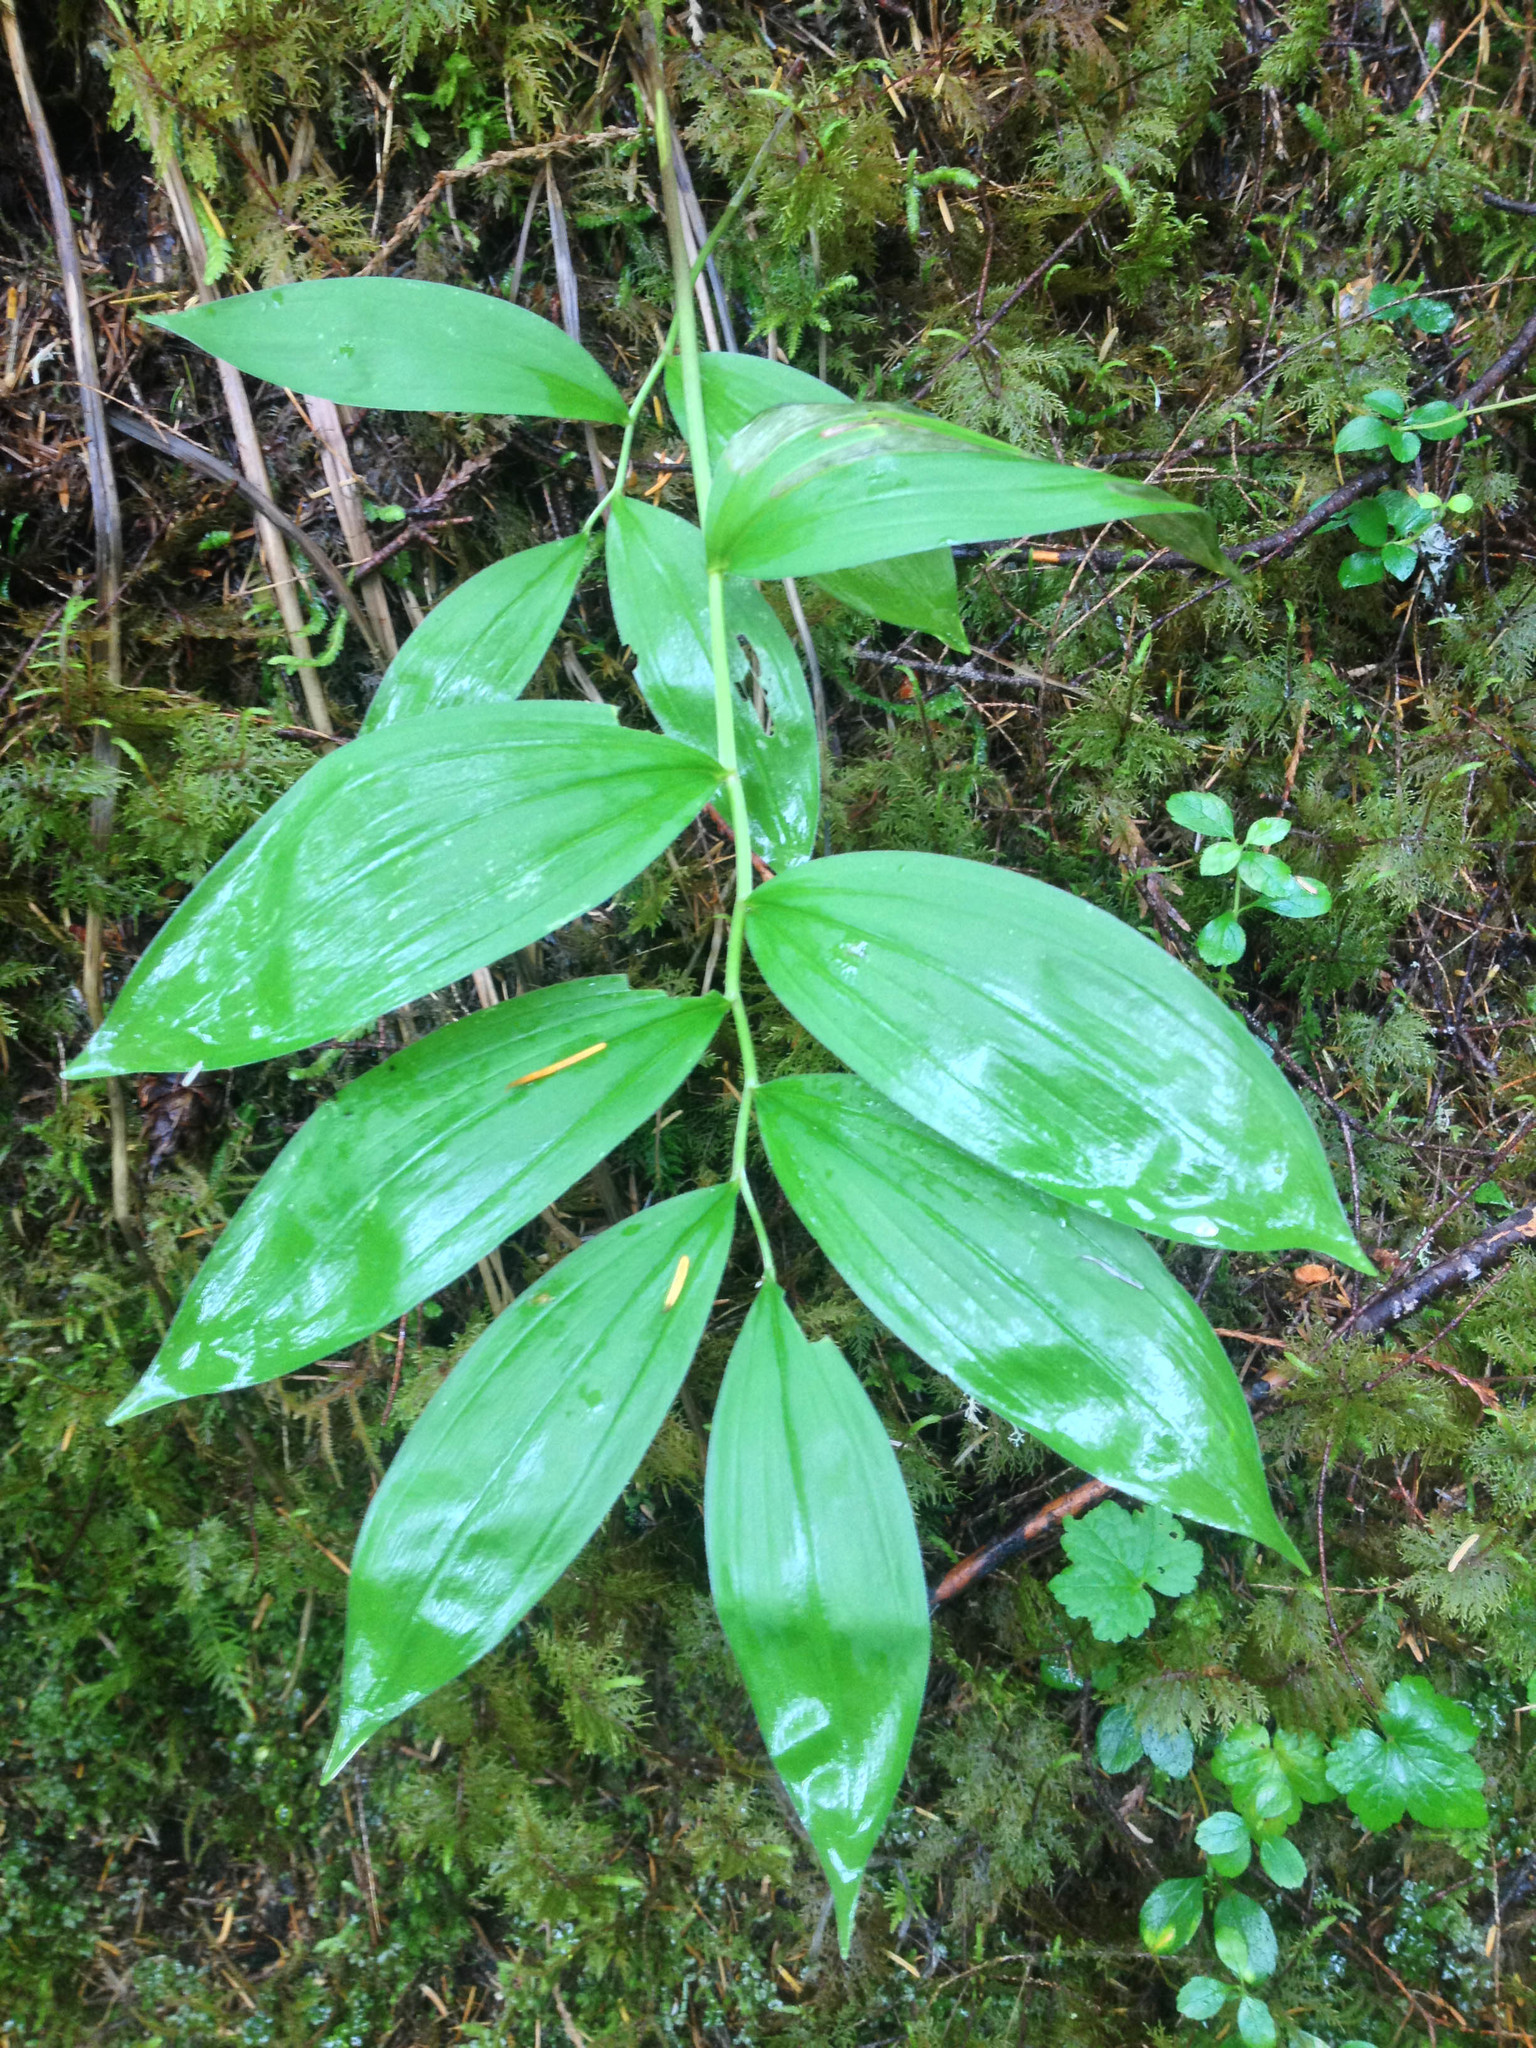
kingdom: Plantae
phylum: Tracheophyta
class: Liliopsida
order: Asparagales
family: Asparagaceae
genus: Maianthemum
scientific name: Maianthemum racemosum
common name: False spikenard
